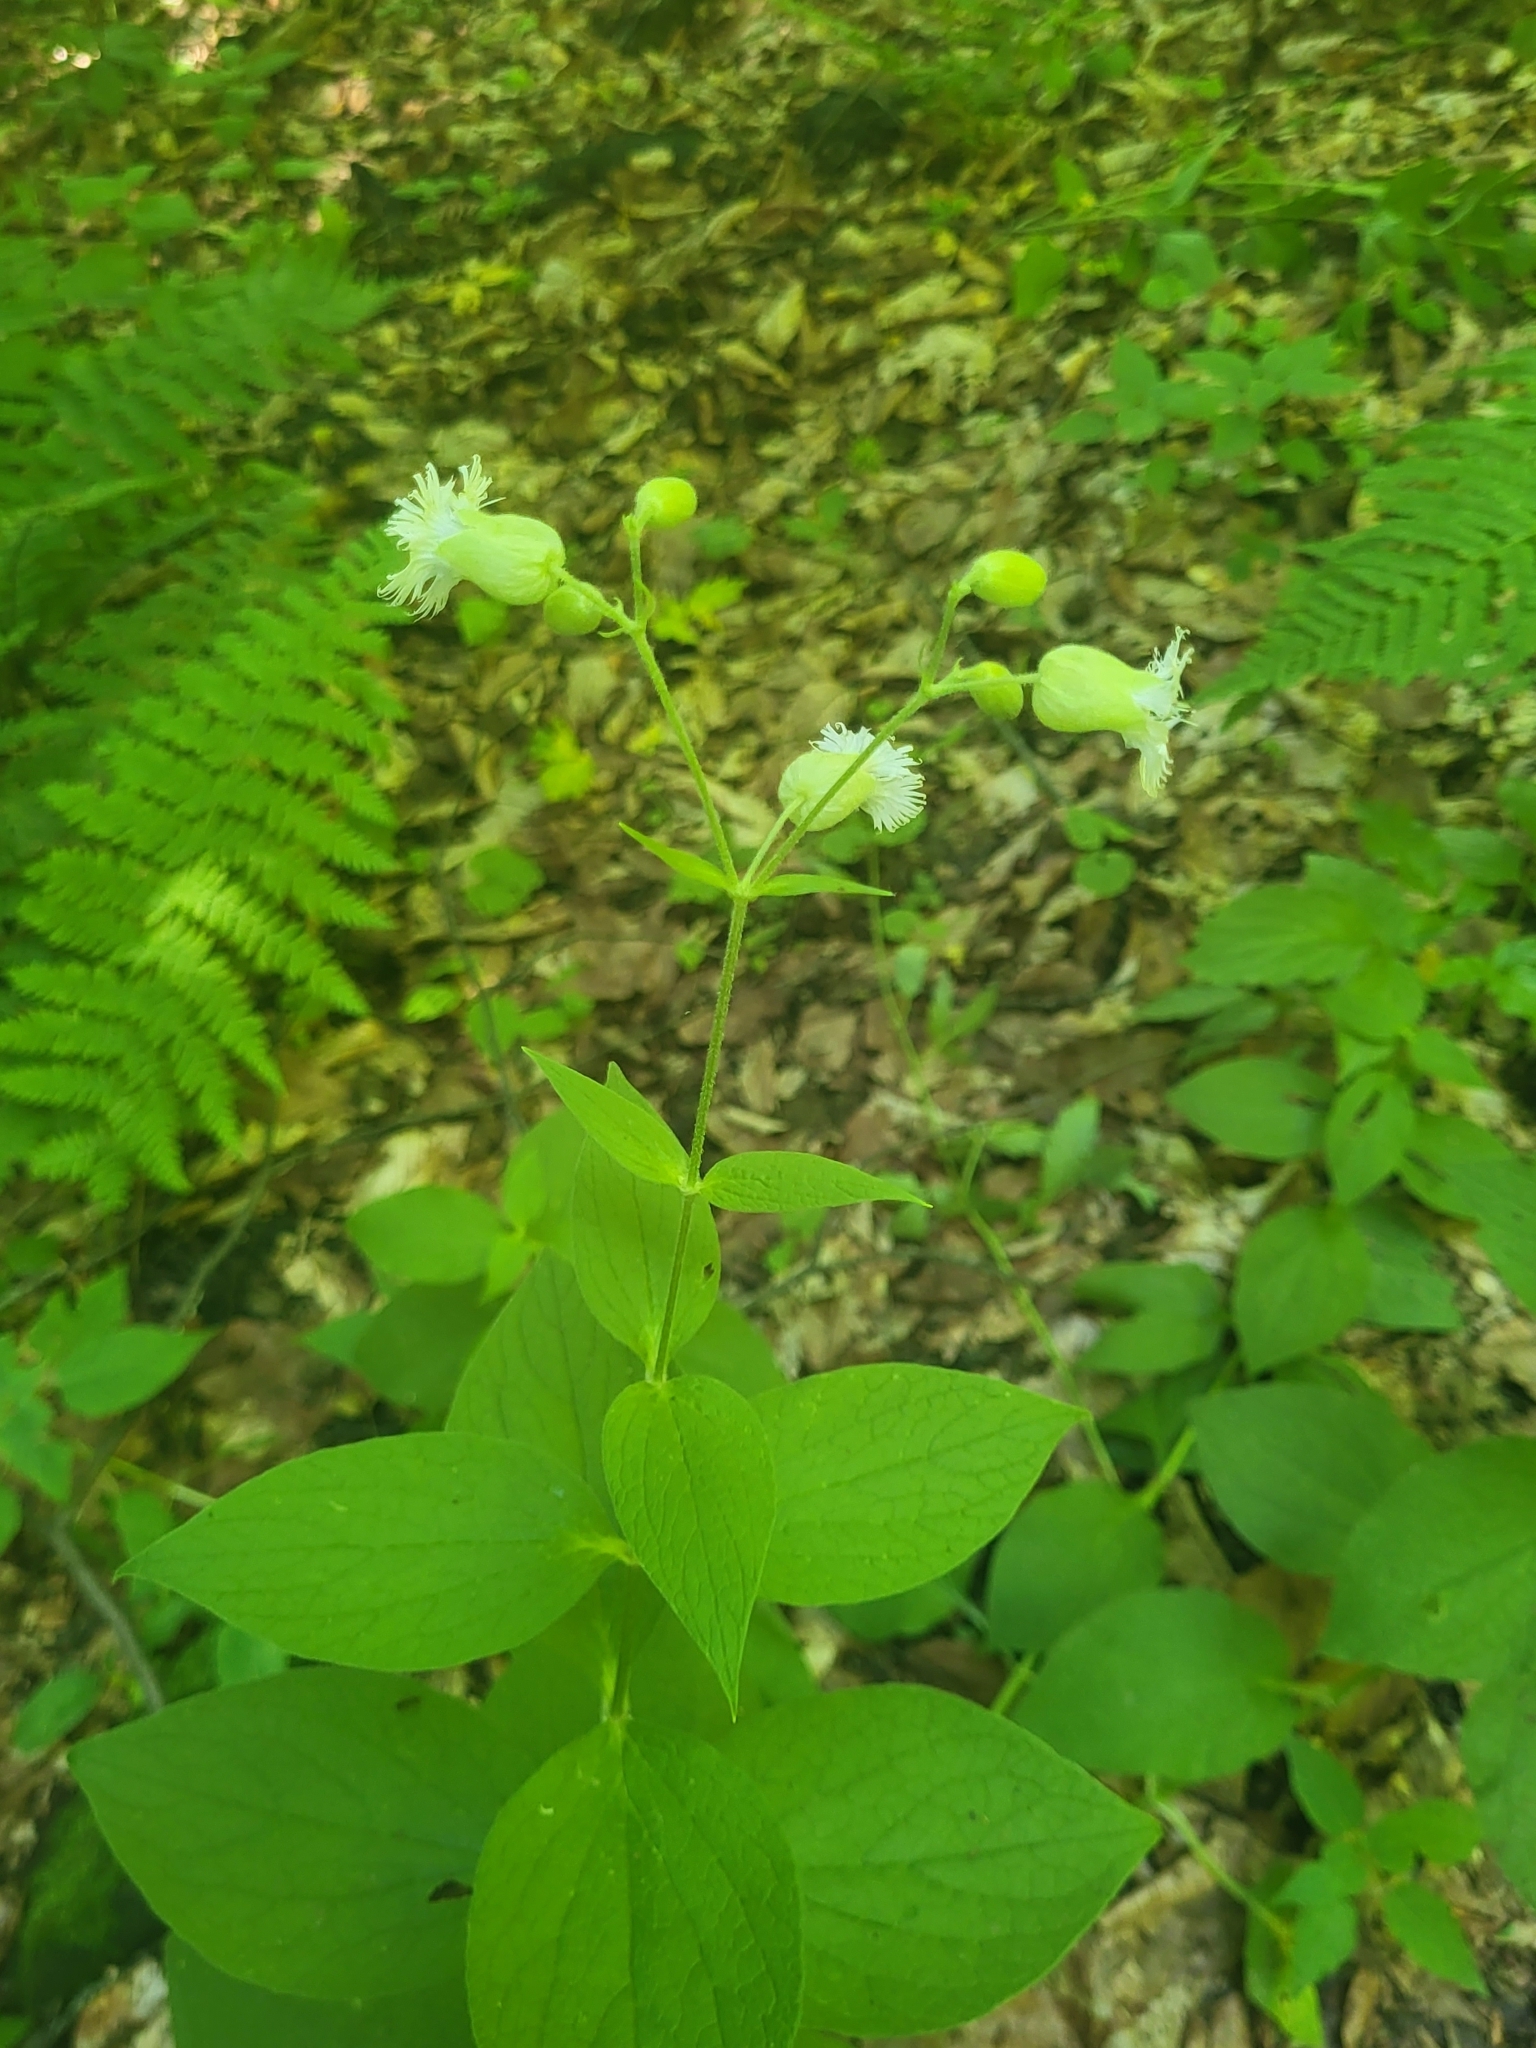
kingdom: Plantae
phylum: Tracheophyta
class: Magnoliopsida
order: Caryophyllales
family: Caryophyllaceae
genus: Silene
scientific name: Silene
